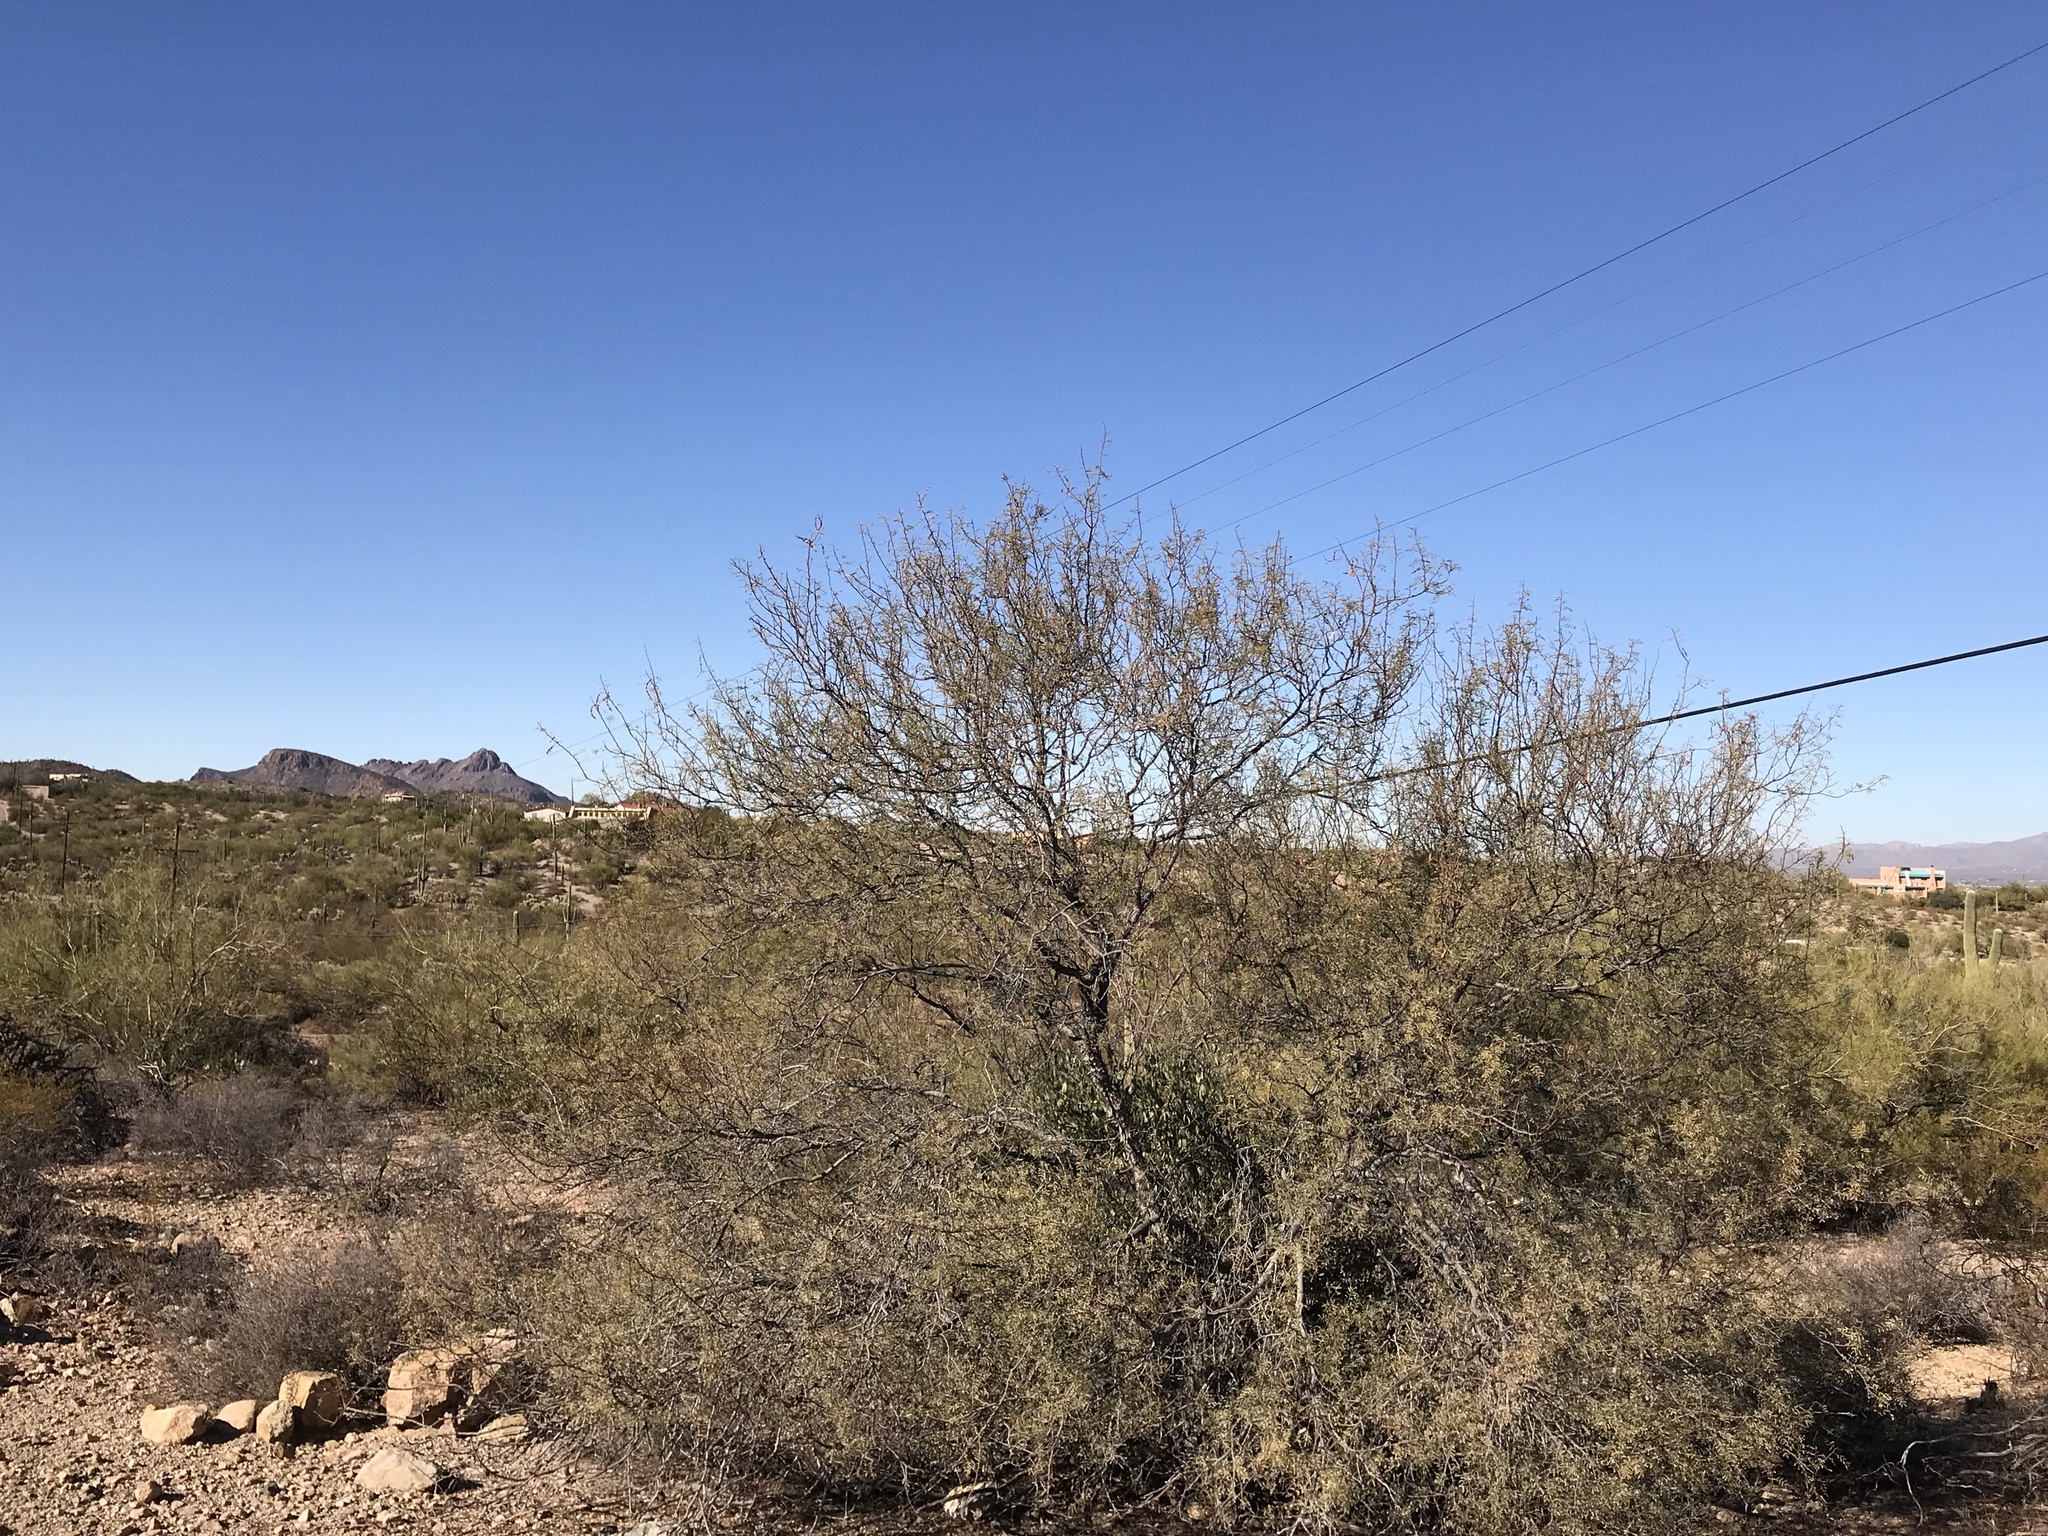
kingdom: Plantae
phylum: Tracheophyta
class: Magnoliopsida
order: Fabales
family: Fabaceae
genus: Olneya
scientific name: Olneya tesota
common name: Desert ironwood
